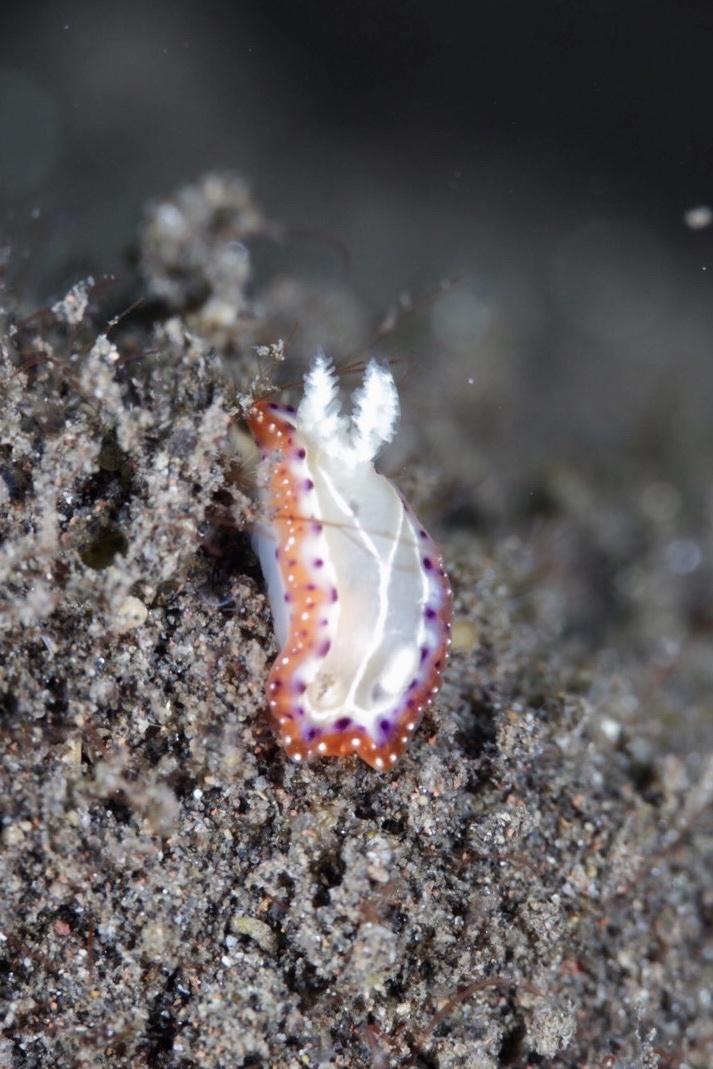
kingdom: Animalia
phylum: Mollusca
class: Gastropoda
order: Nudibranchia
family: Chromodorididae
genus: Goniobranchus
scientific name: Goniobranchus setoensis
